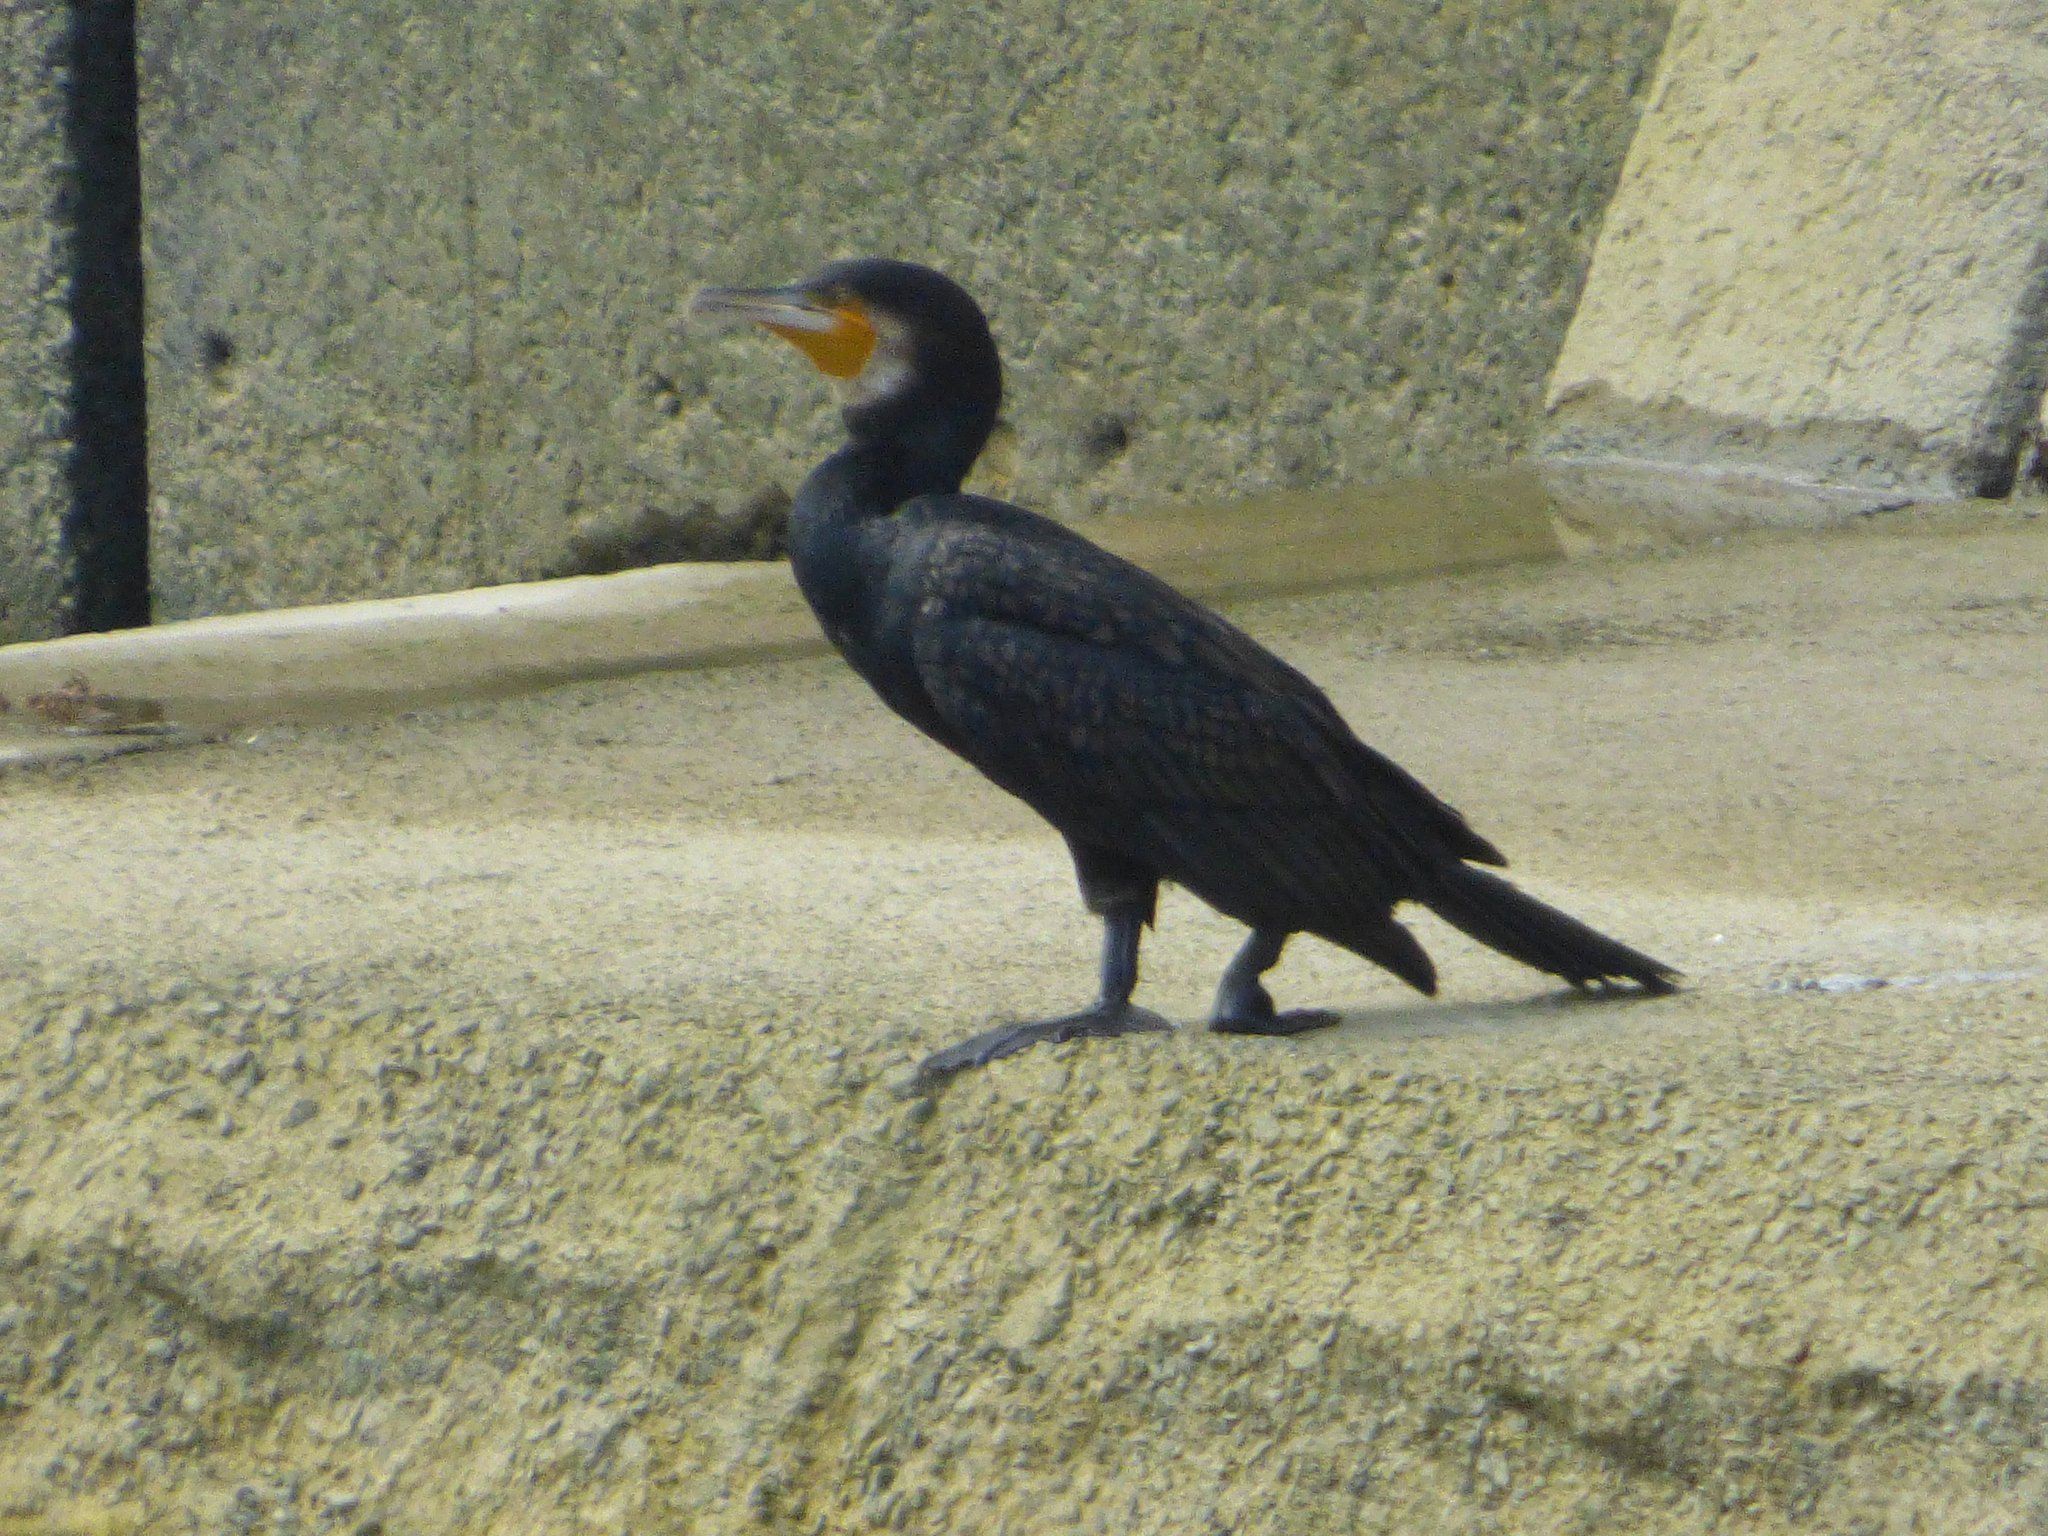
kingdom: Animalia
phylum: Chordata
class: Aves
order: Suliformes
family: Phalacrocoracidae
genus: Phalacrocorax
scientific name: Phalacrocorax carbo
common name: Great cormorant
